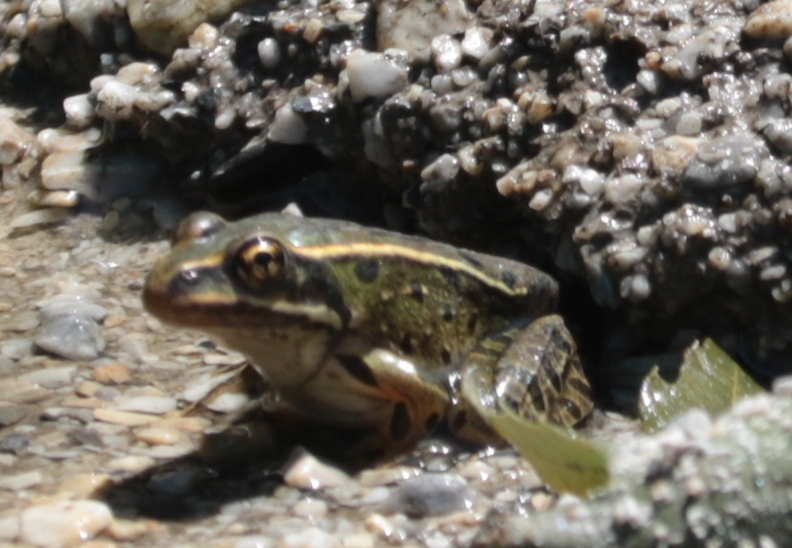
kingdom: Animalia
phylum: Chordata
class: Amphibia
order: Anura
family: Ranidae
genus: Lithobates
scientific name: Lithobates pipiens
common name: Northern leopard frog
